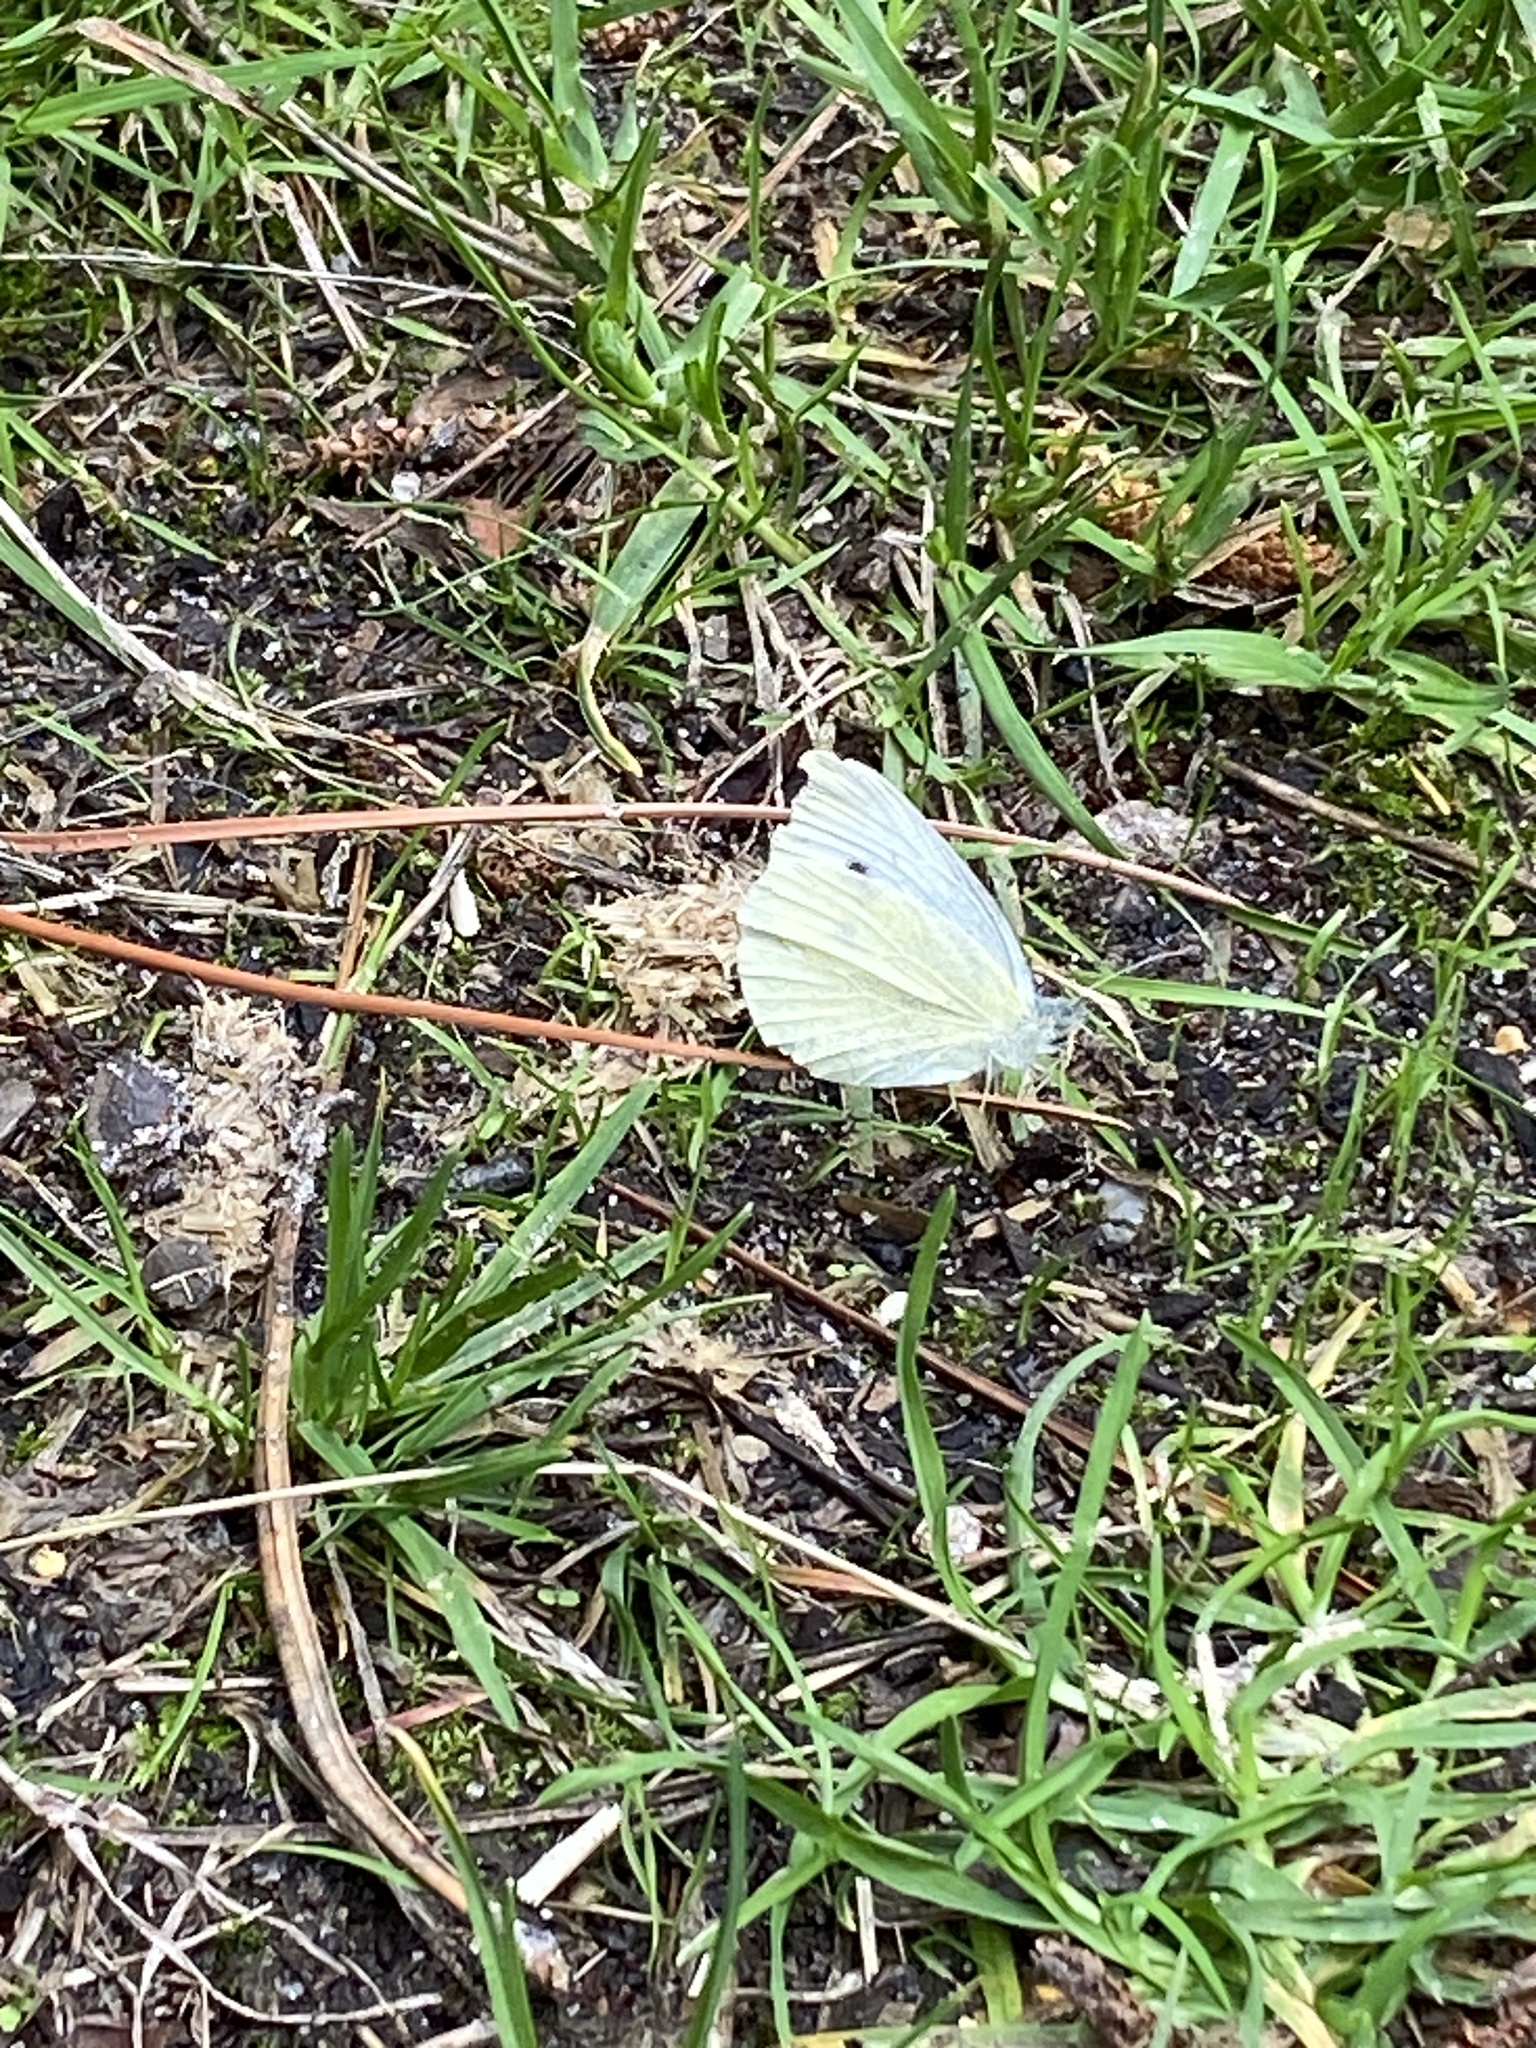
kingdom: Animalia
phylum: Arthropoda
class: Insecta
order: Lepidoptera
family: Pieridae
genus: Pieris
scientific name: Pieris rapae
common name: Small white
